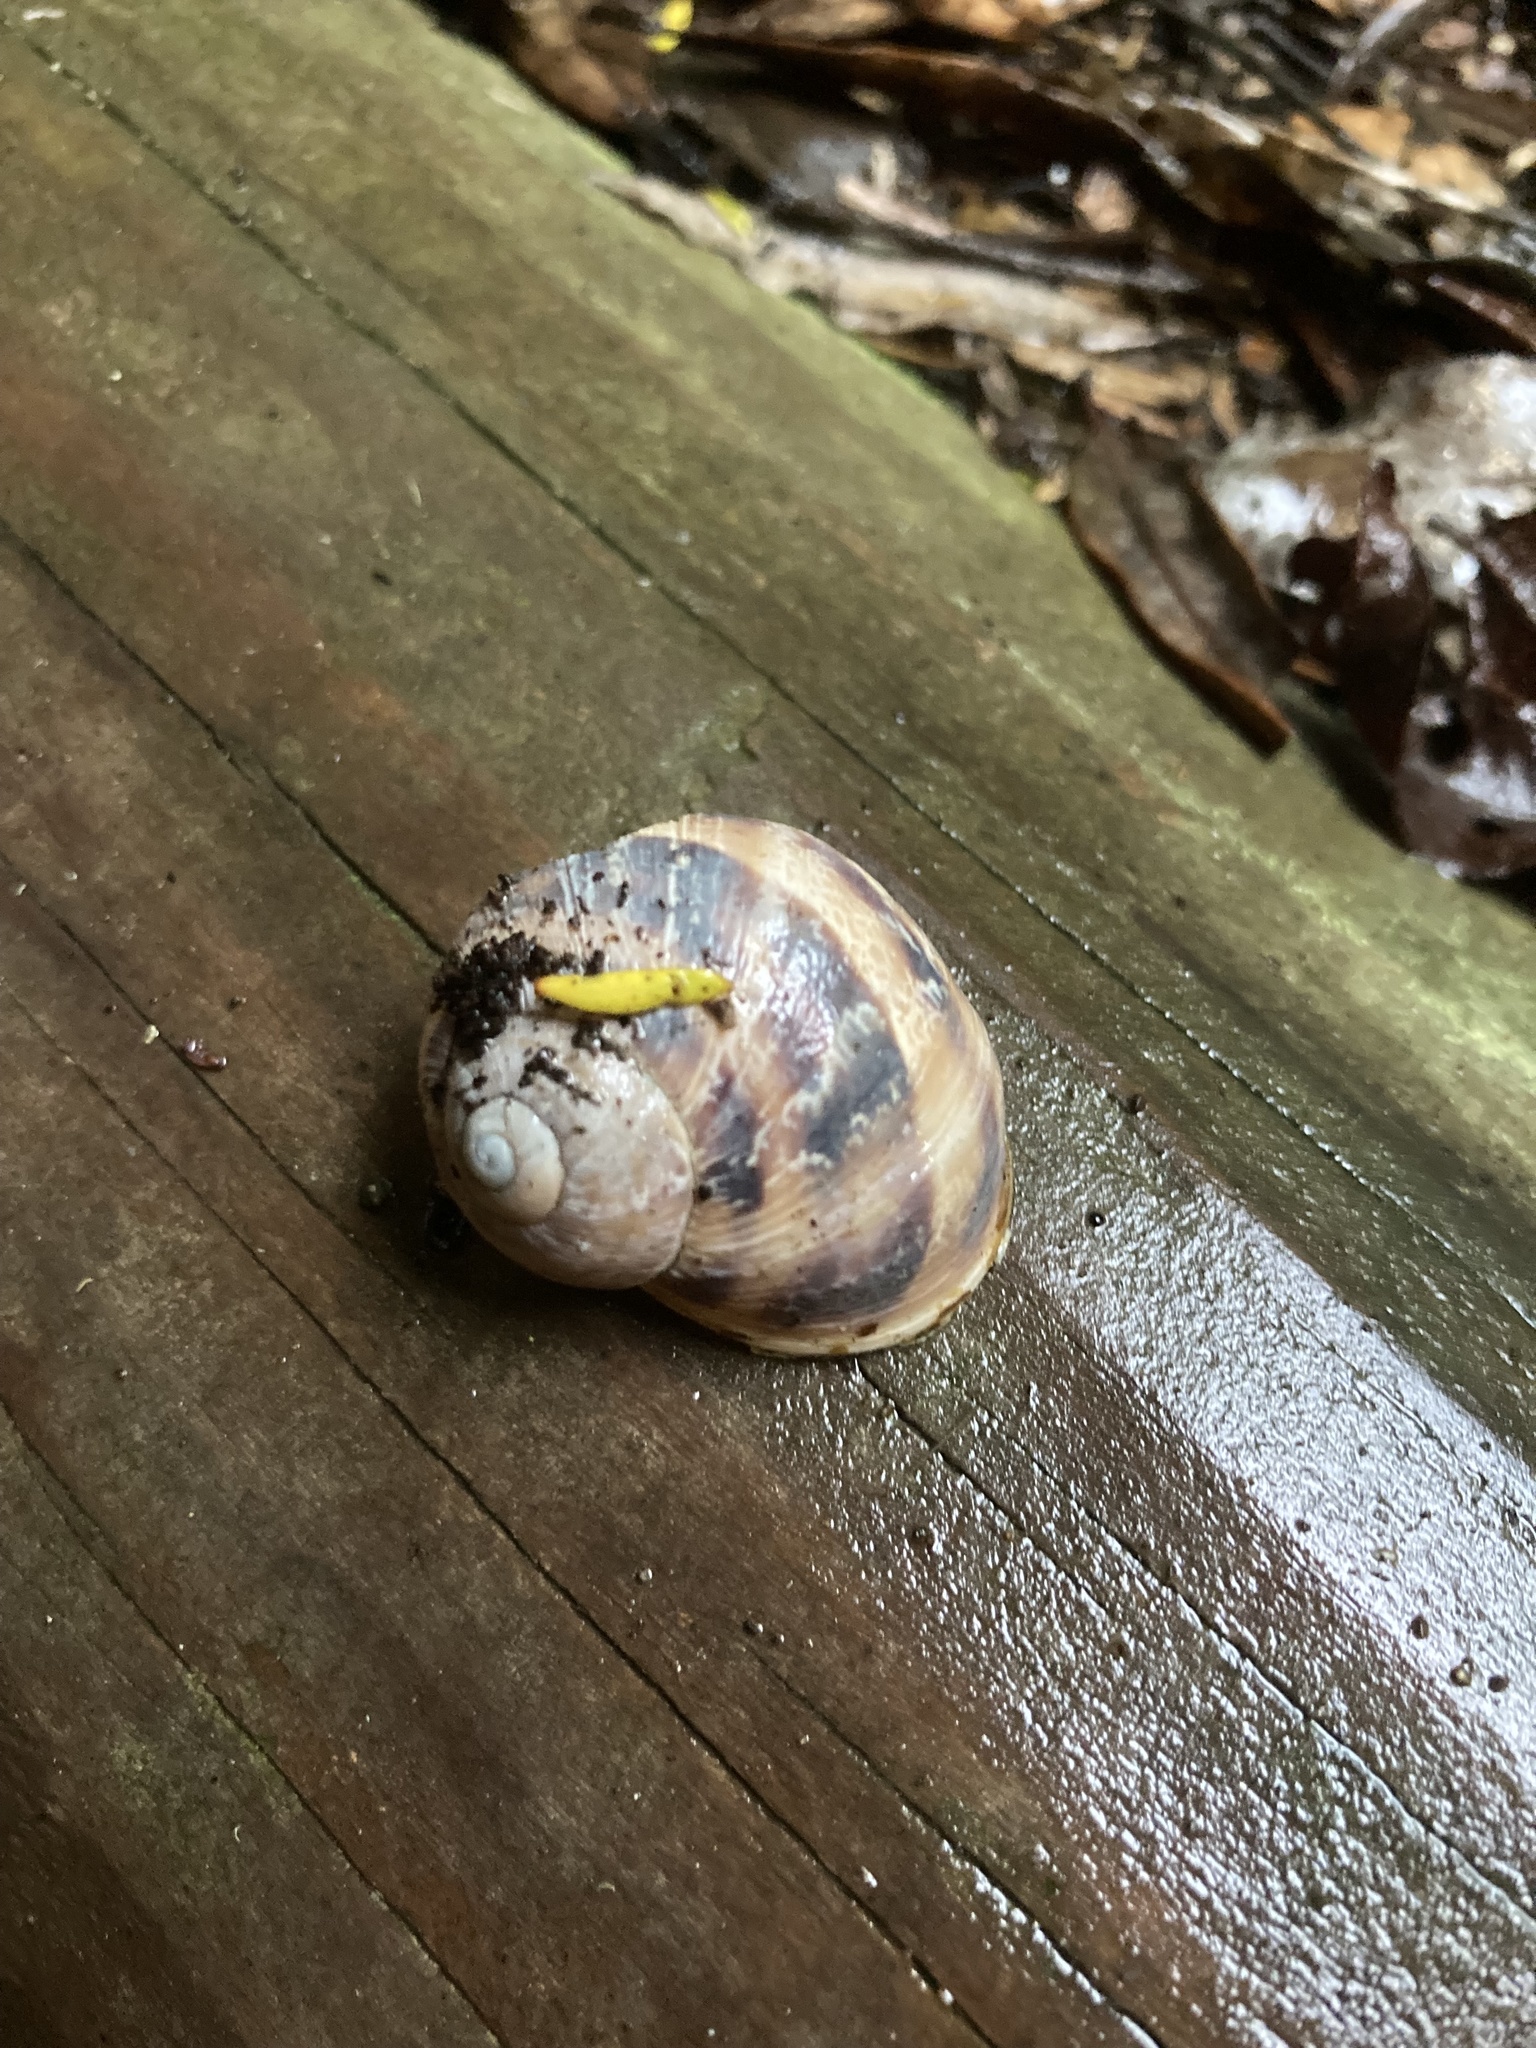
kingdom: Animalia
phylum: Mollusca
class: Gastropoda
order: Stylommatophora
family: Helicidae
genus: Cornu
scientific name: Cornu aspersum
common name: Brown garden snail
